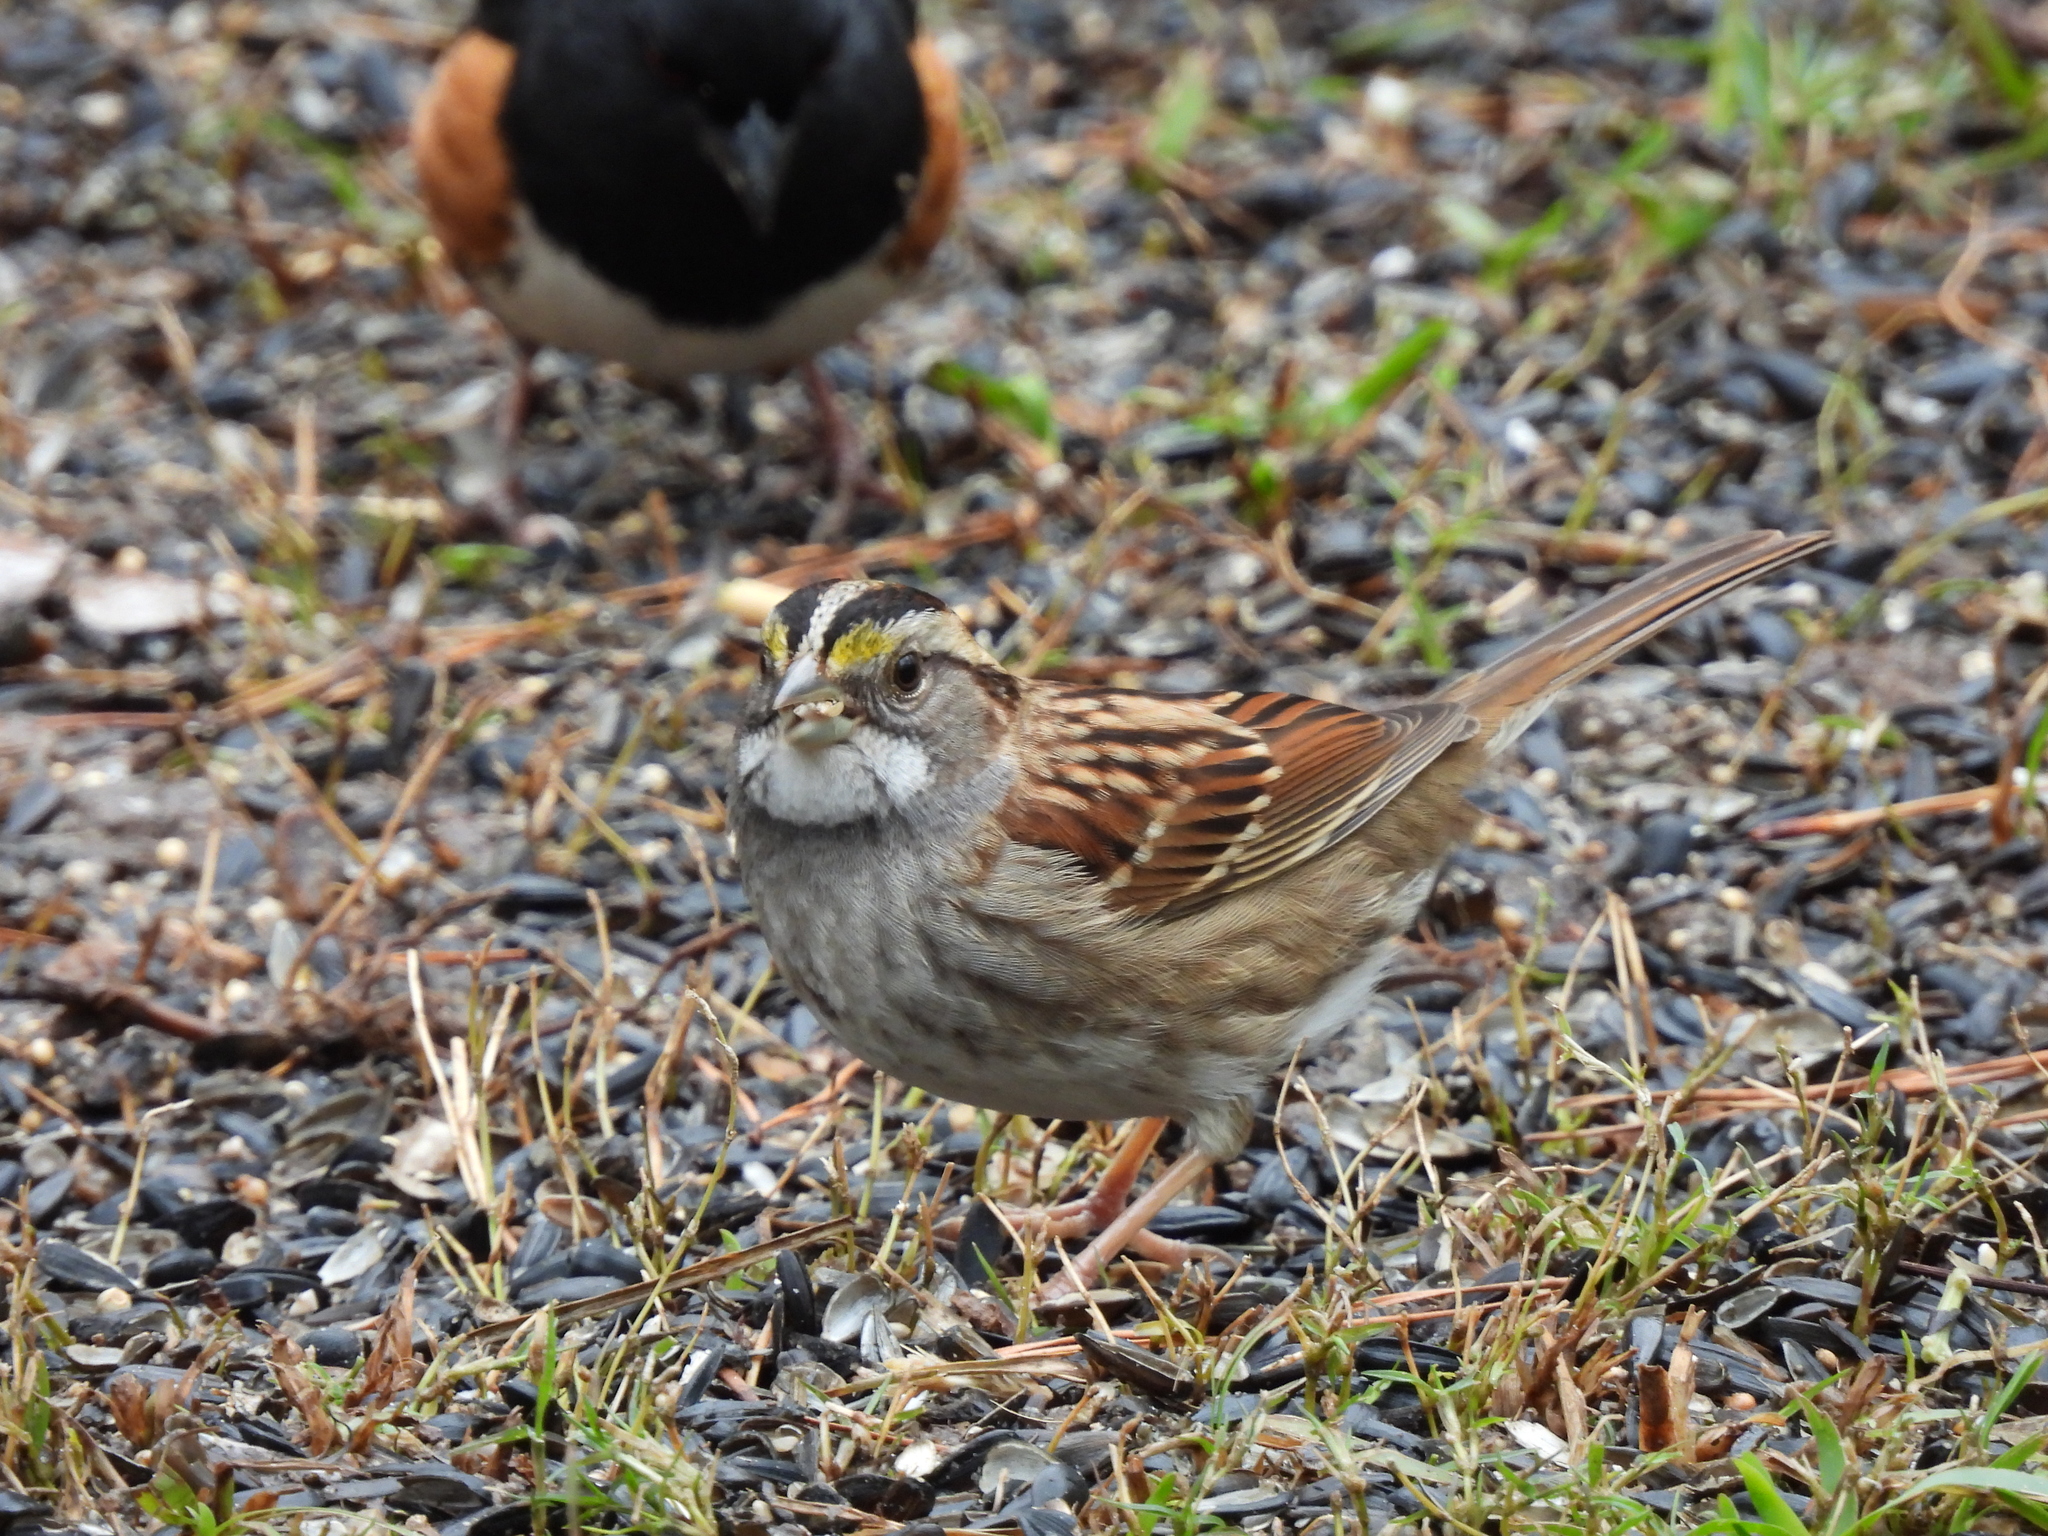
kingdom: Animalia
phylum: Chordata
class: Aves
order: Passeriformes
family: Passerellidae
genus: Zonotrichia
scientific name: Zonotrichia albicollis
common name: White-throated sparrow
